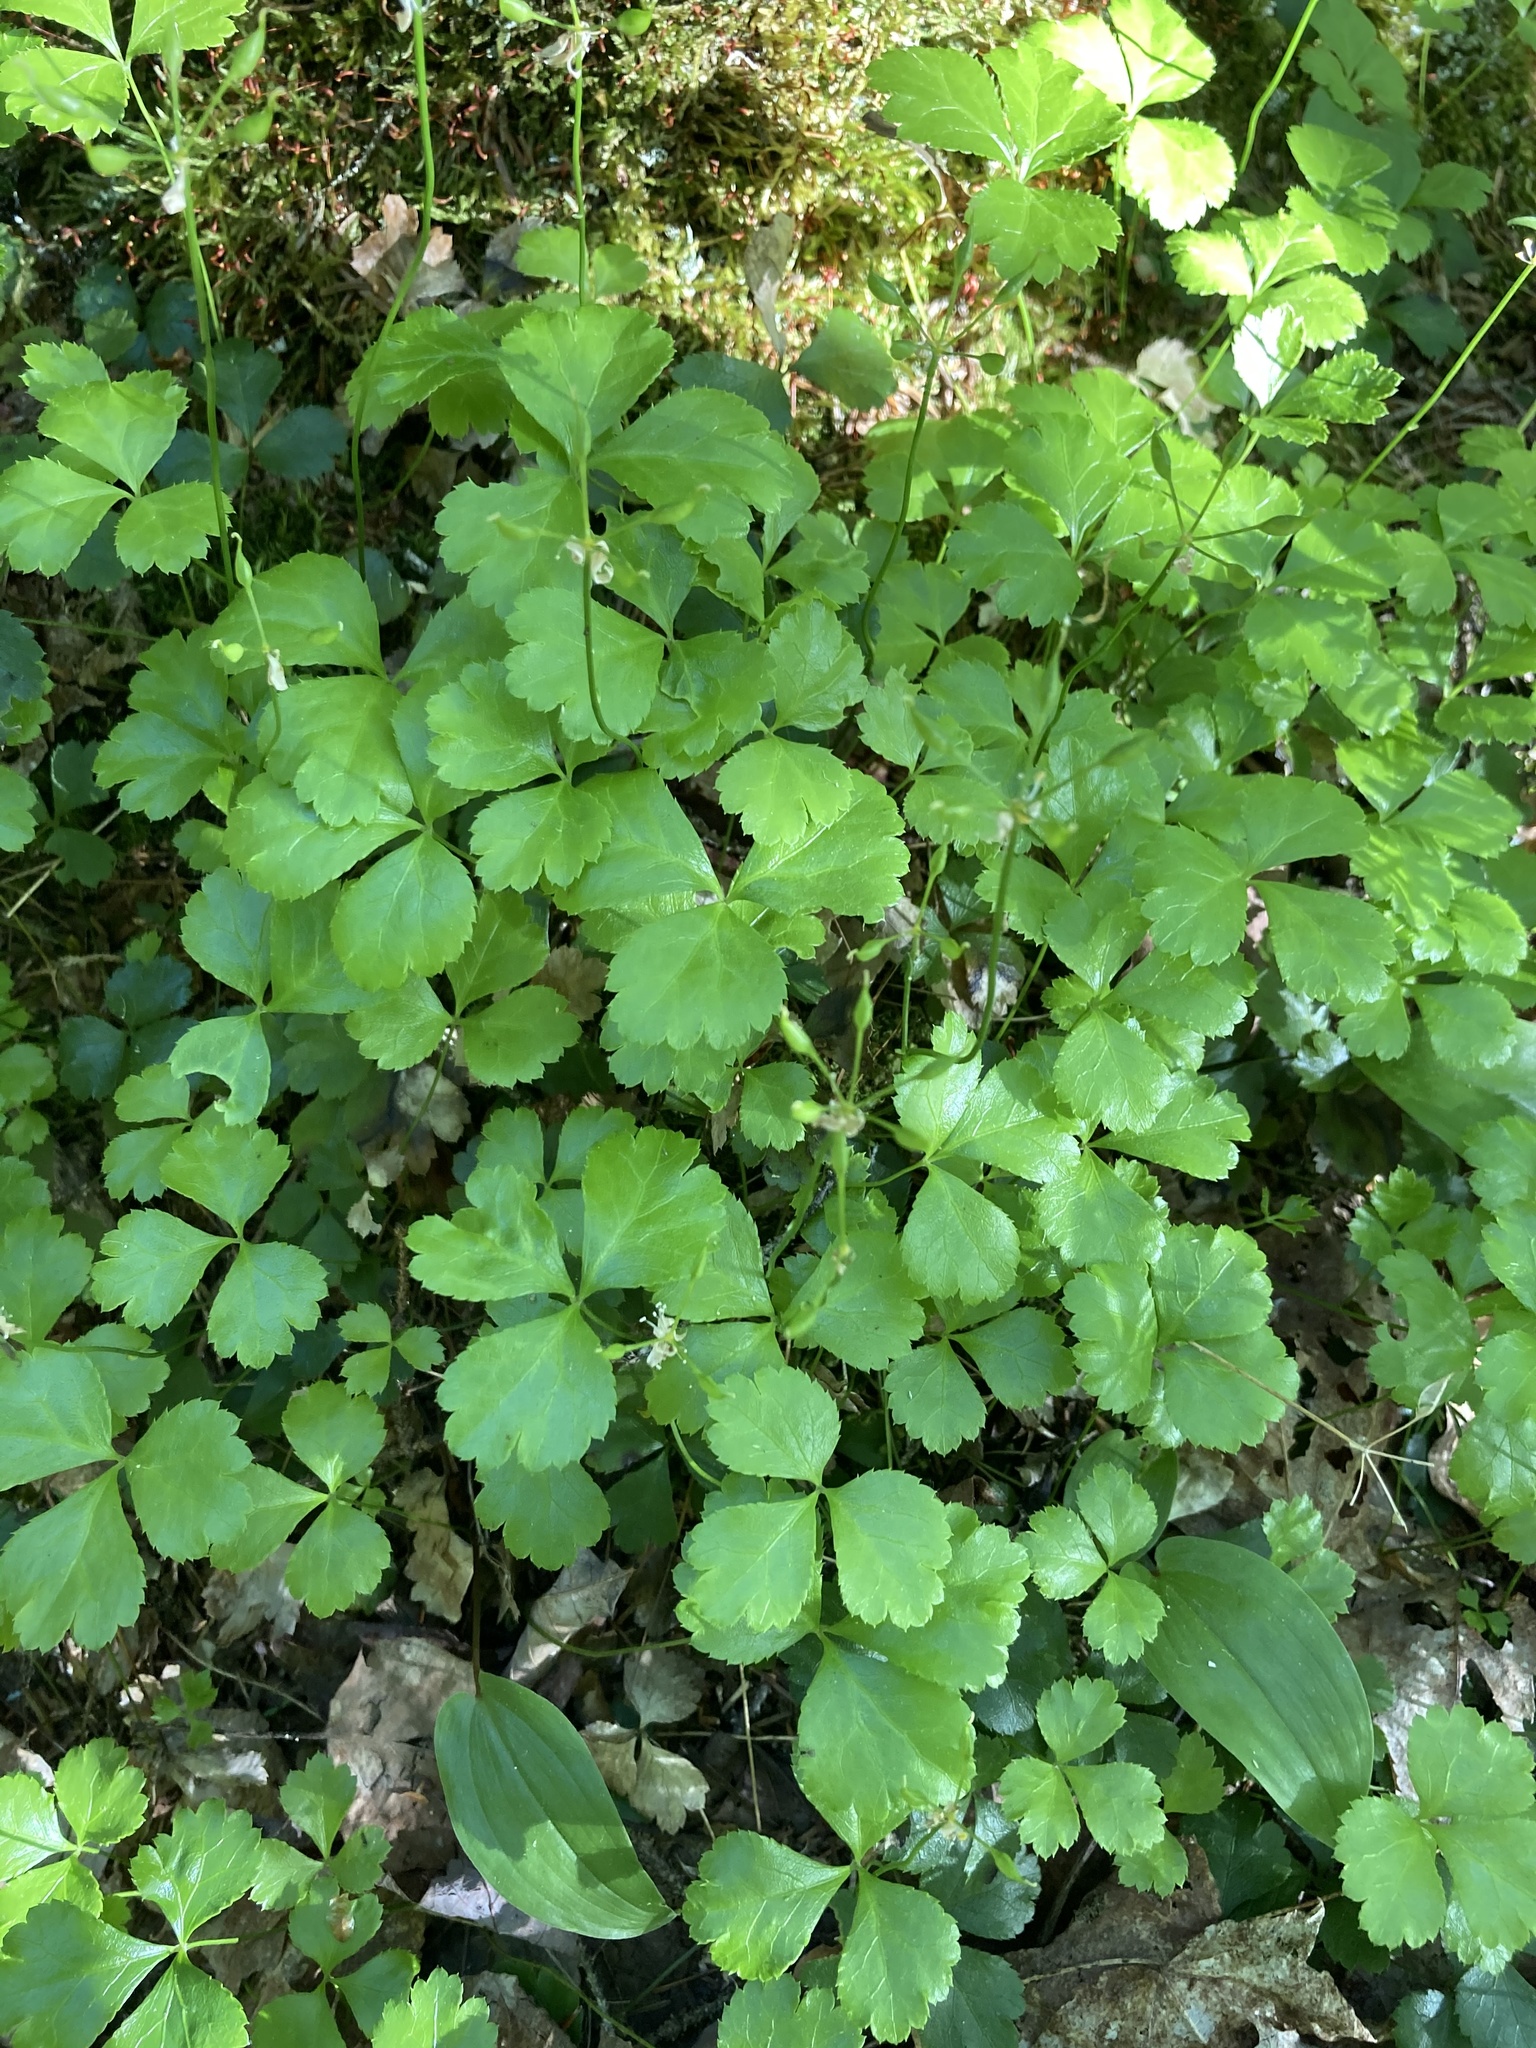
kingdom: Plantae
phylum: Tracheophyta
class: Magnoliopsida
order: Ranunculales
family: Ranunculaceae
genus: Coptis
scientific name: Coptis trifolia
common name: Canker-root
